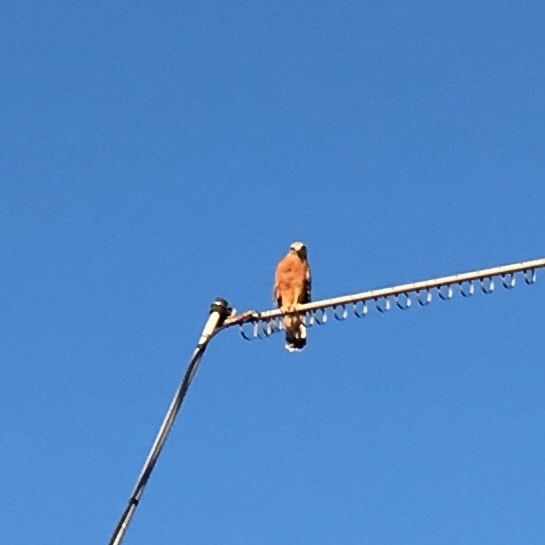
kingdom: Animalia
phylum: Chordata
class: Aves
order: Accipitriformes
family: Accipitridae
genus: Buteo
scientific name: Buteo lineatus
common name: Red-shouldered hawk
